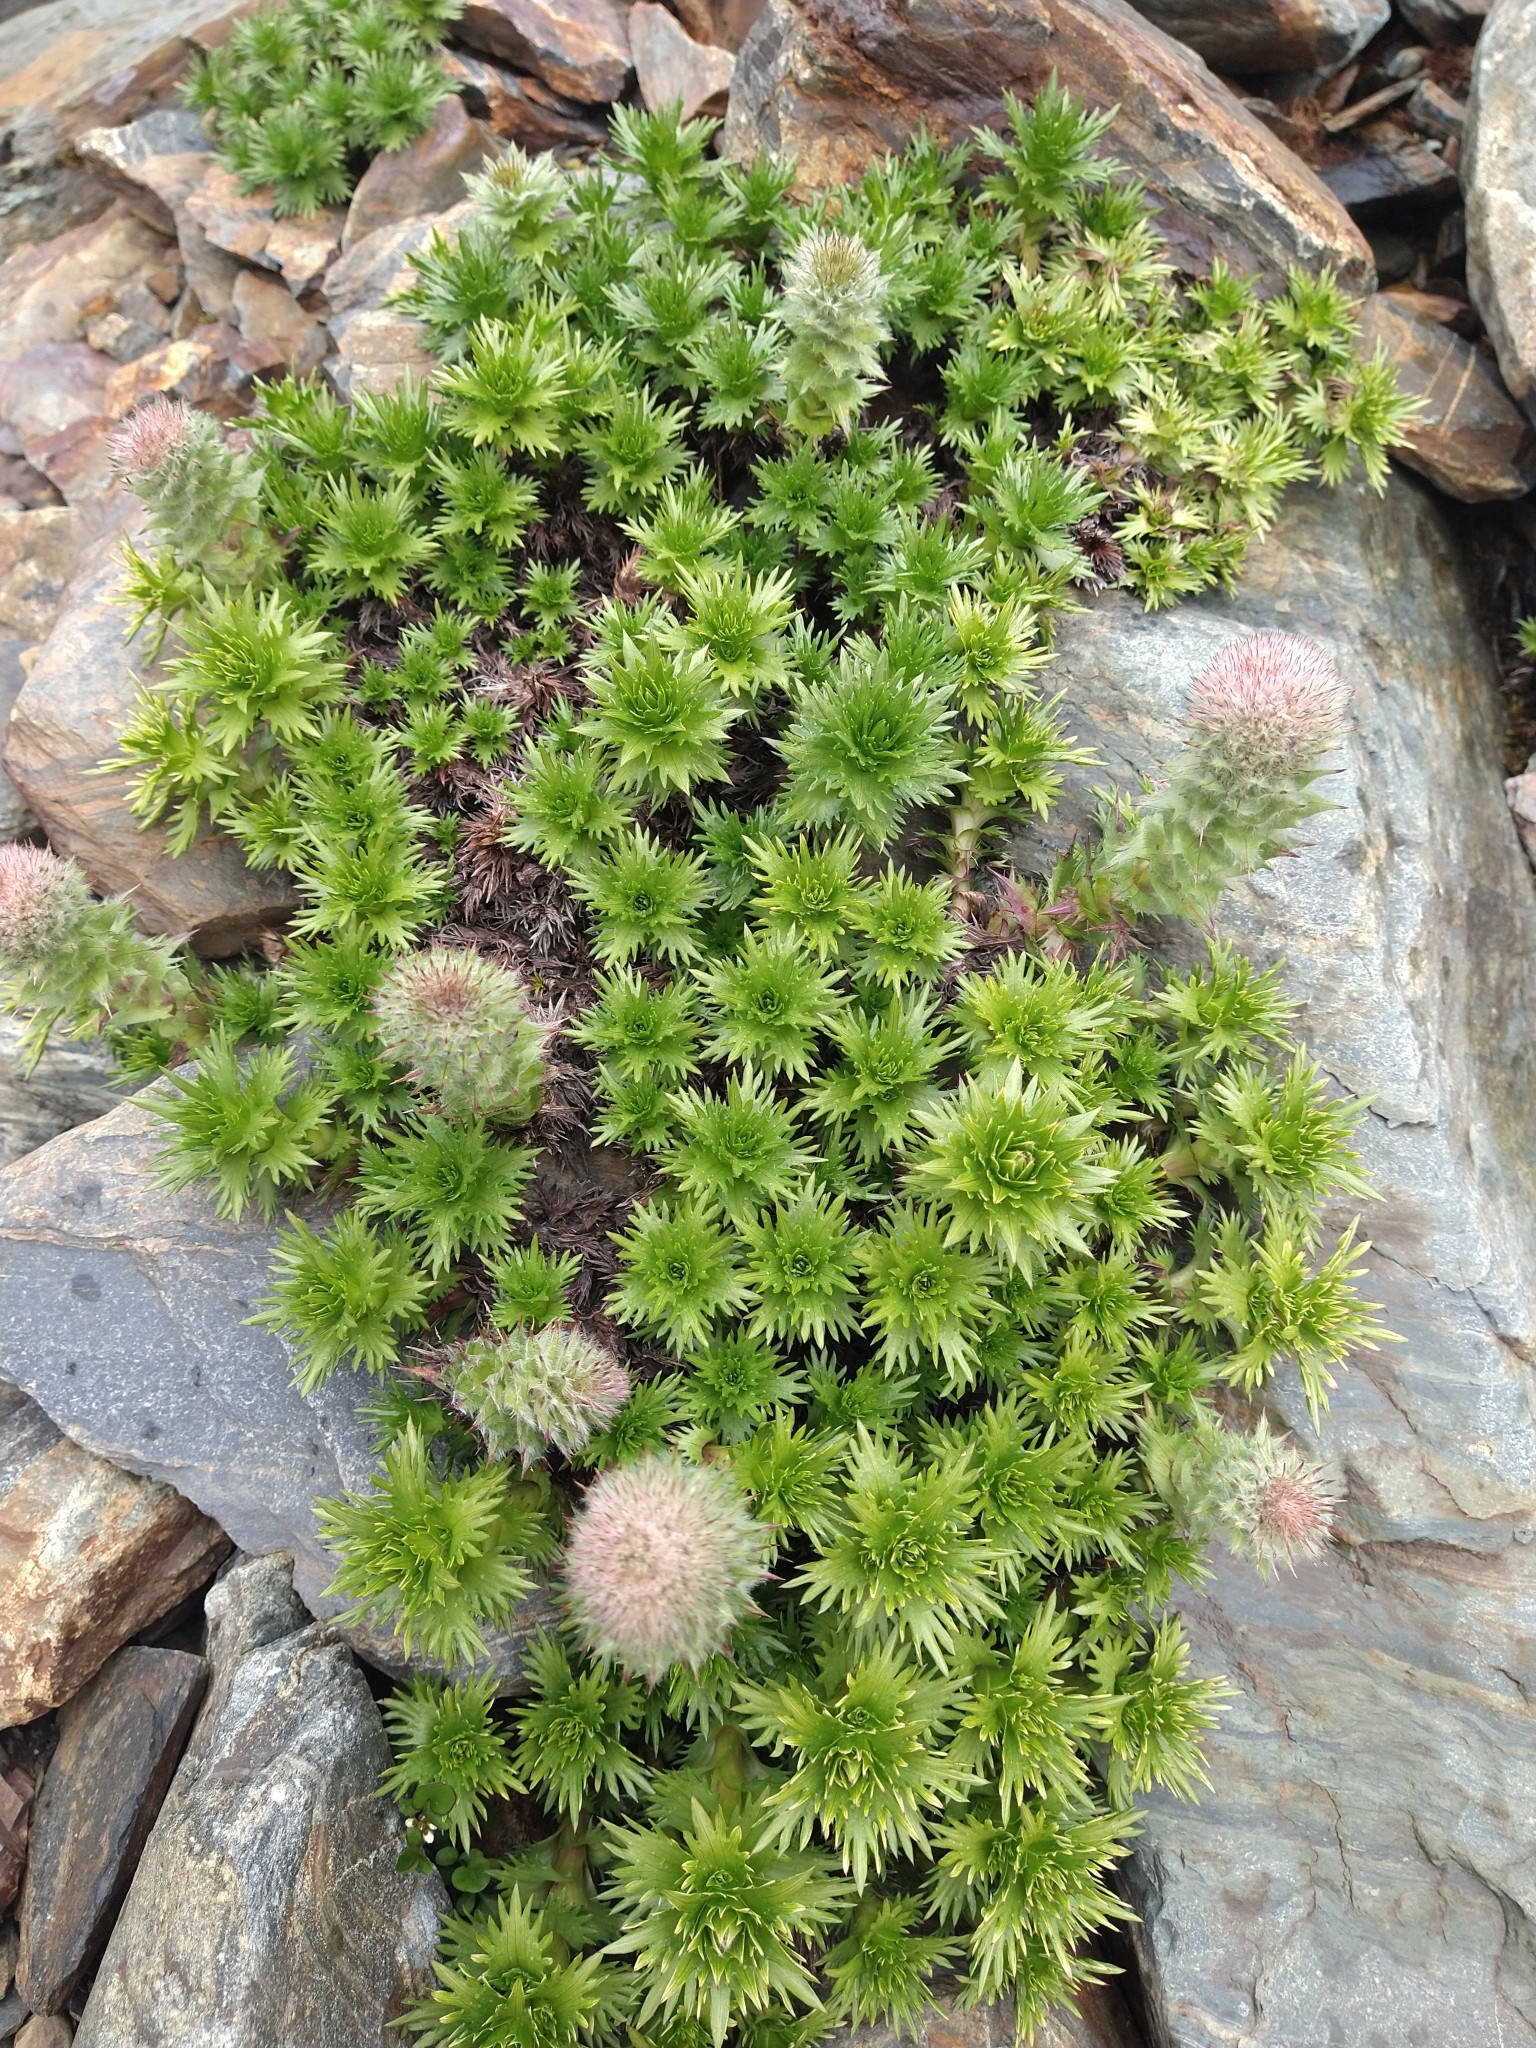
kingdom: Plantae
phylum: Tracheophyta
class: Magnoliopsida
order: Asterales
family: Asteraceae
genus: Nassauvia
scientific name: Nassauvia magellanica
